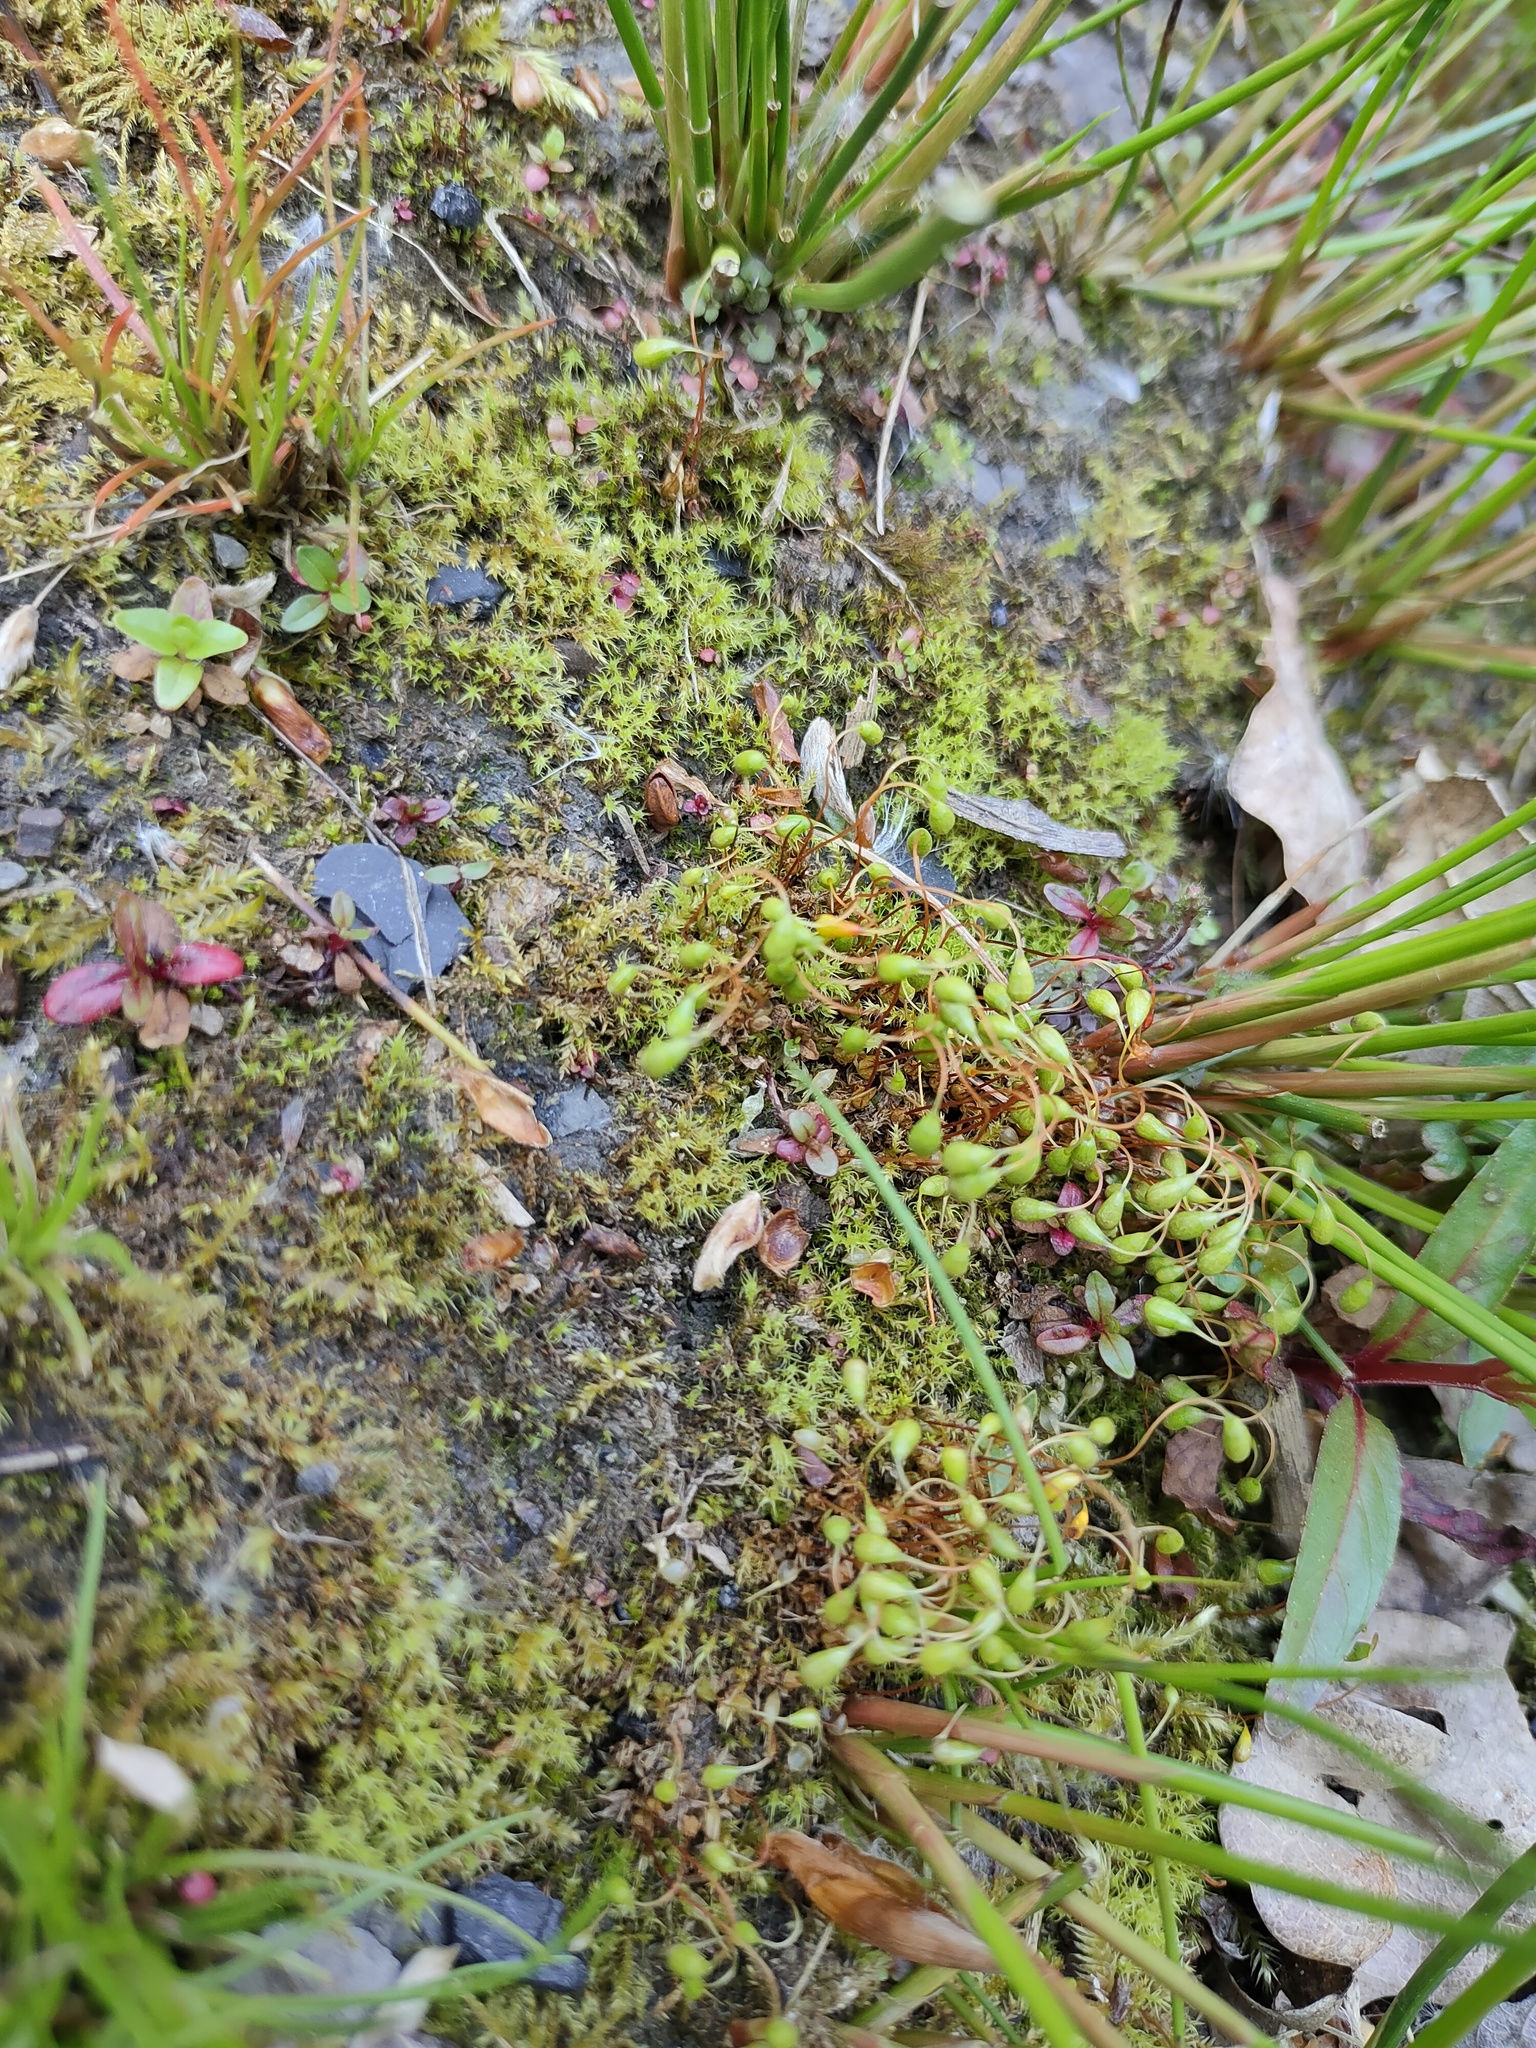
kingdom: Plantae
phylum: Bryophyta
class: Bryopsida
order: Funariales
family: Funariaceae
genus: Funaria
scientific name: Funaria hygrometrica
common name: Common cord moss
